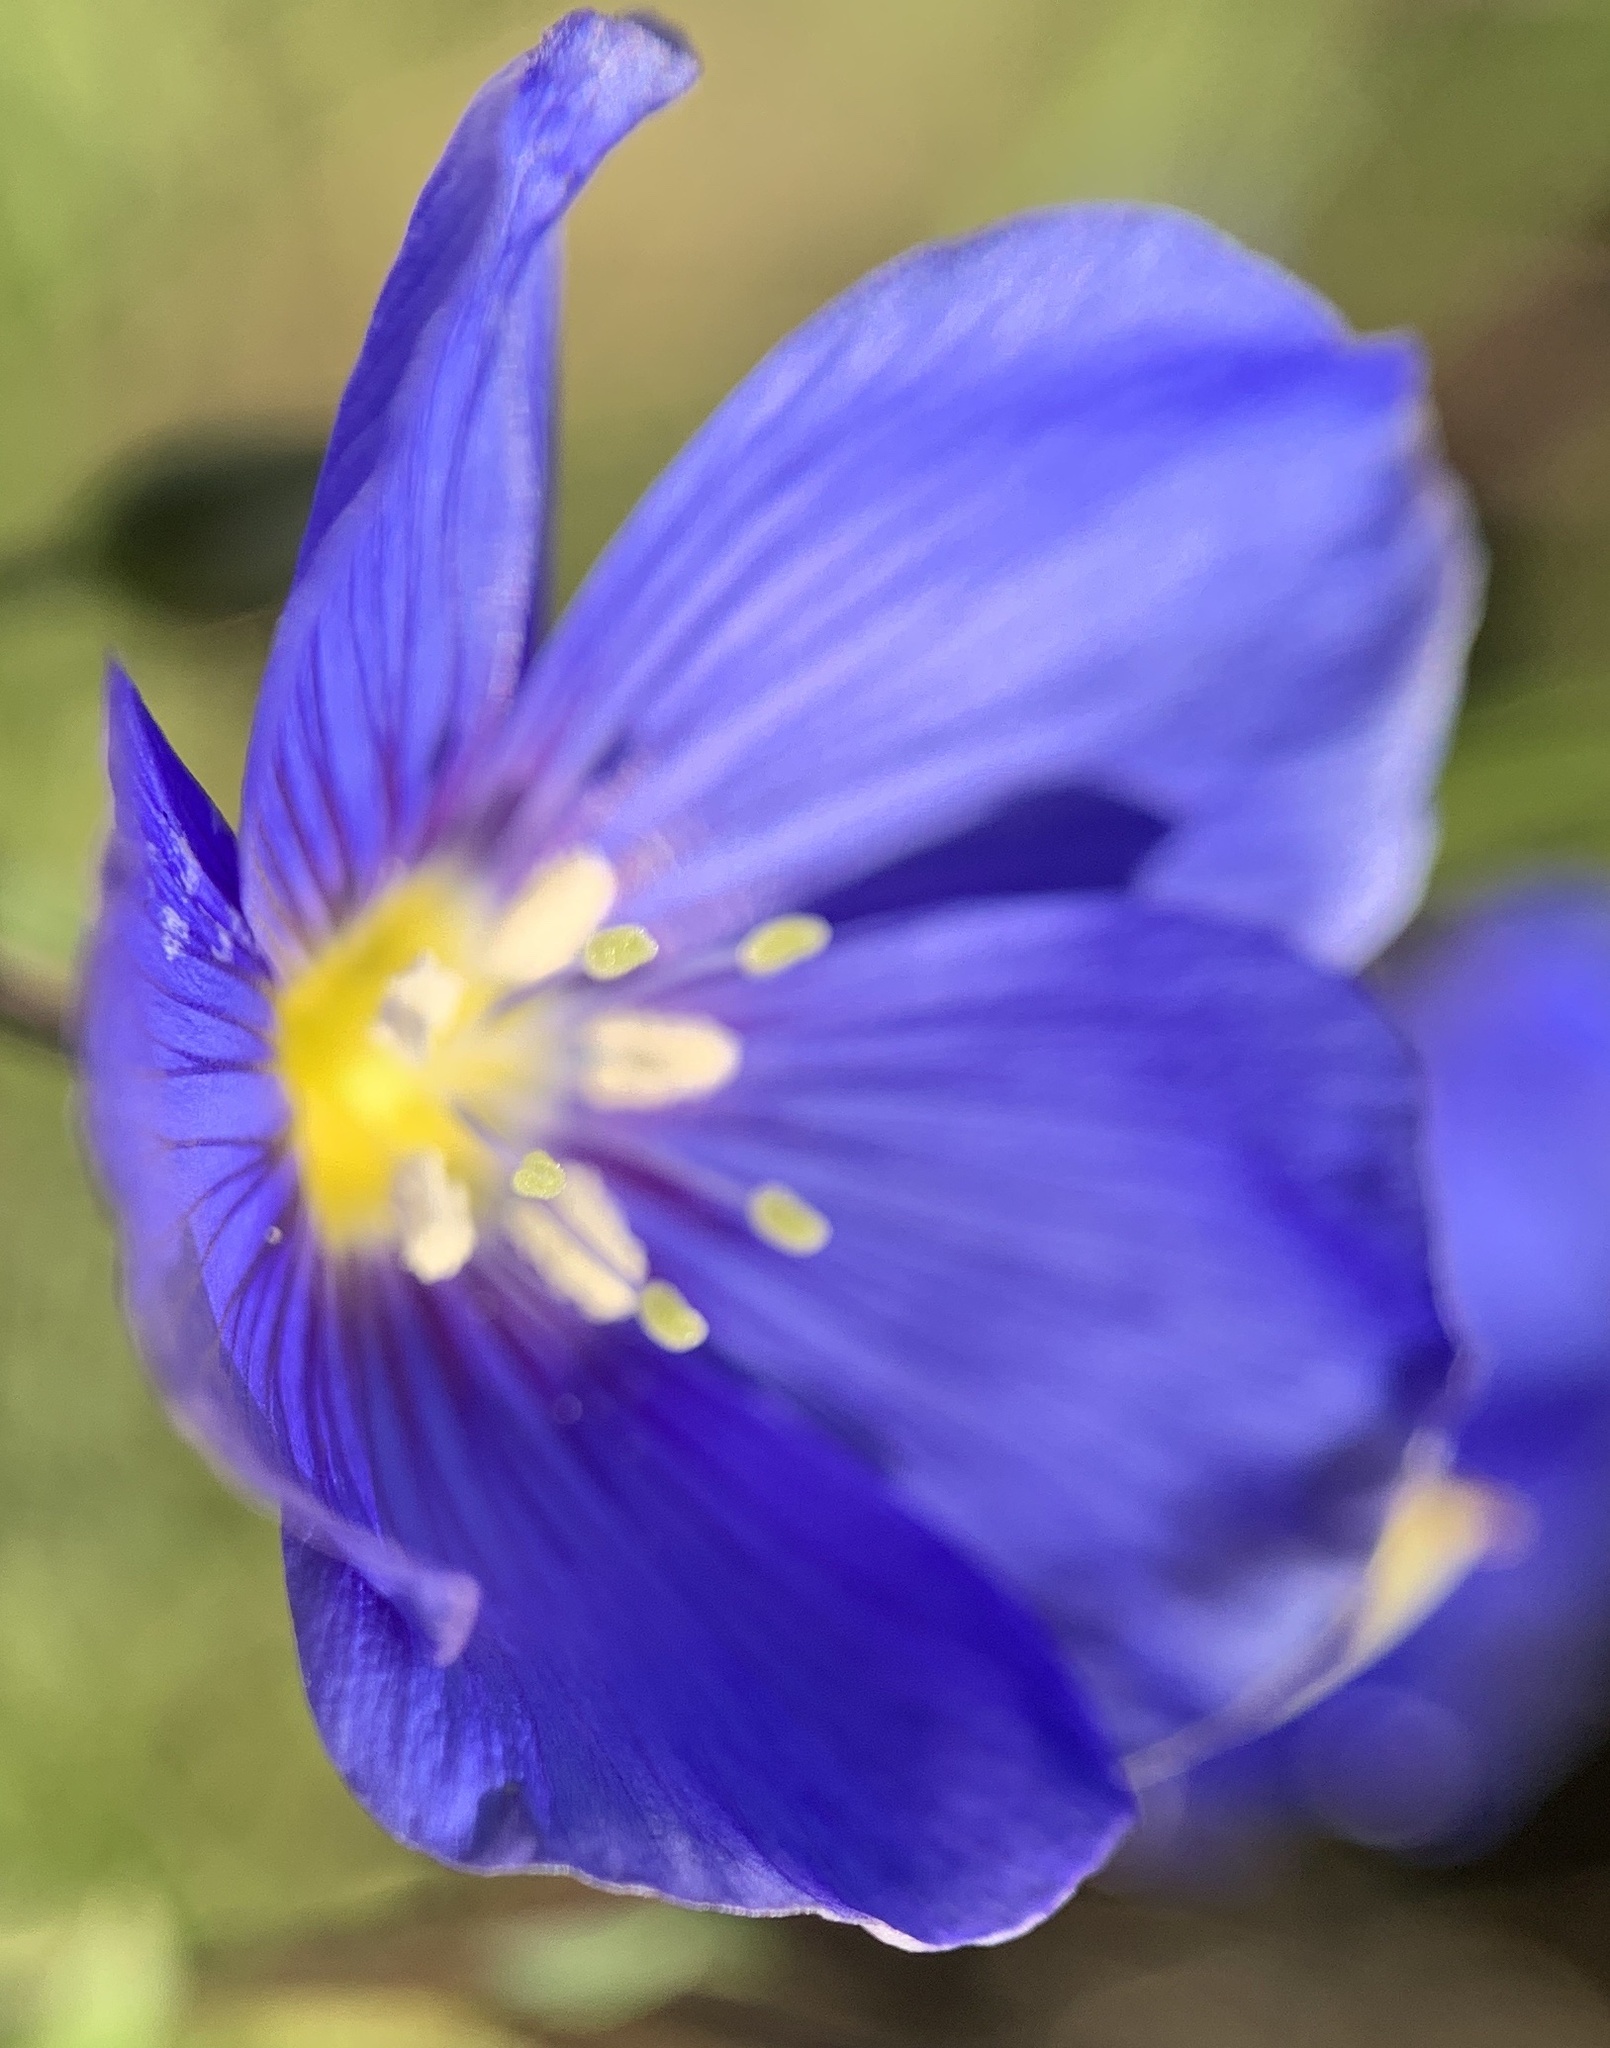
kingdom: Plantae
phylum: Tracheophyta
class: Magnoliopsida
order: Malpighiales
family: Linaceae
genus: Linum
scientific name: Linum lewisii
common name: Prairie flax
